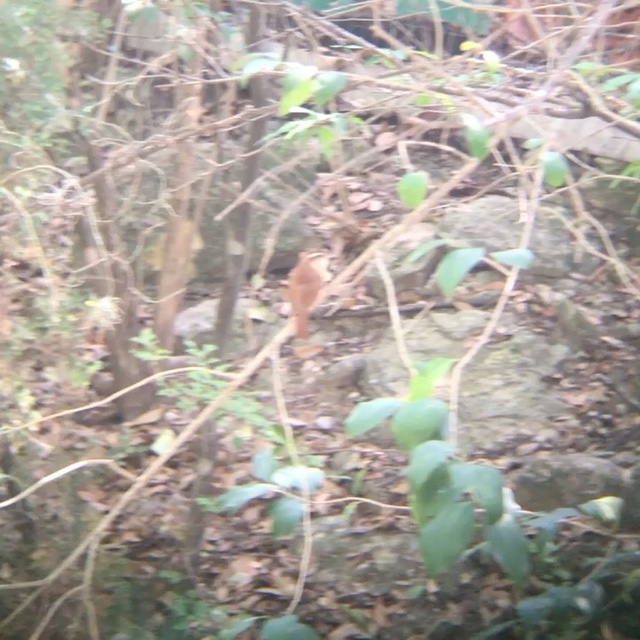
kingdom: Animalia
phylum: Chordata
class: Aves
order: Passeriformes
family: Troglodytidae
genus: Thryothorus
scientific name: Thryothorus ludovicianus
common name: Carolina wren
